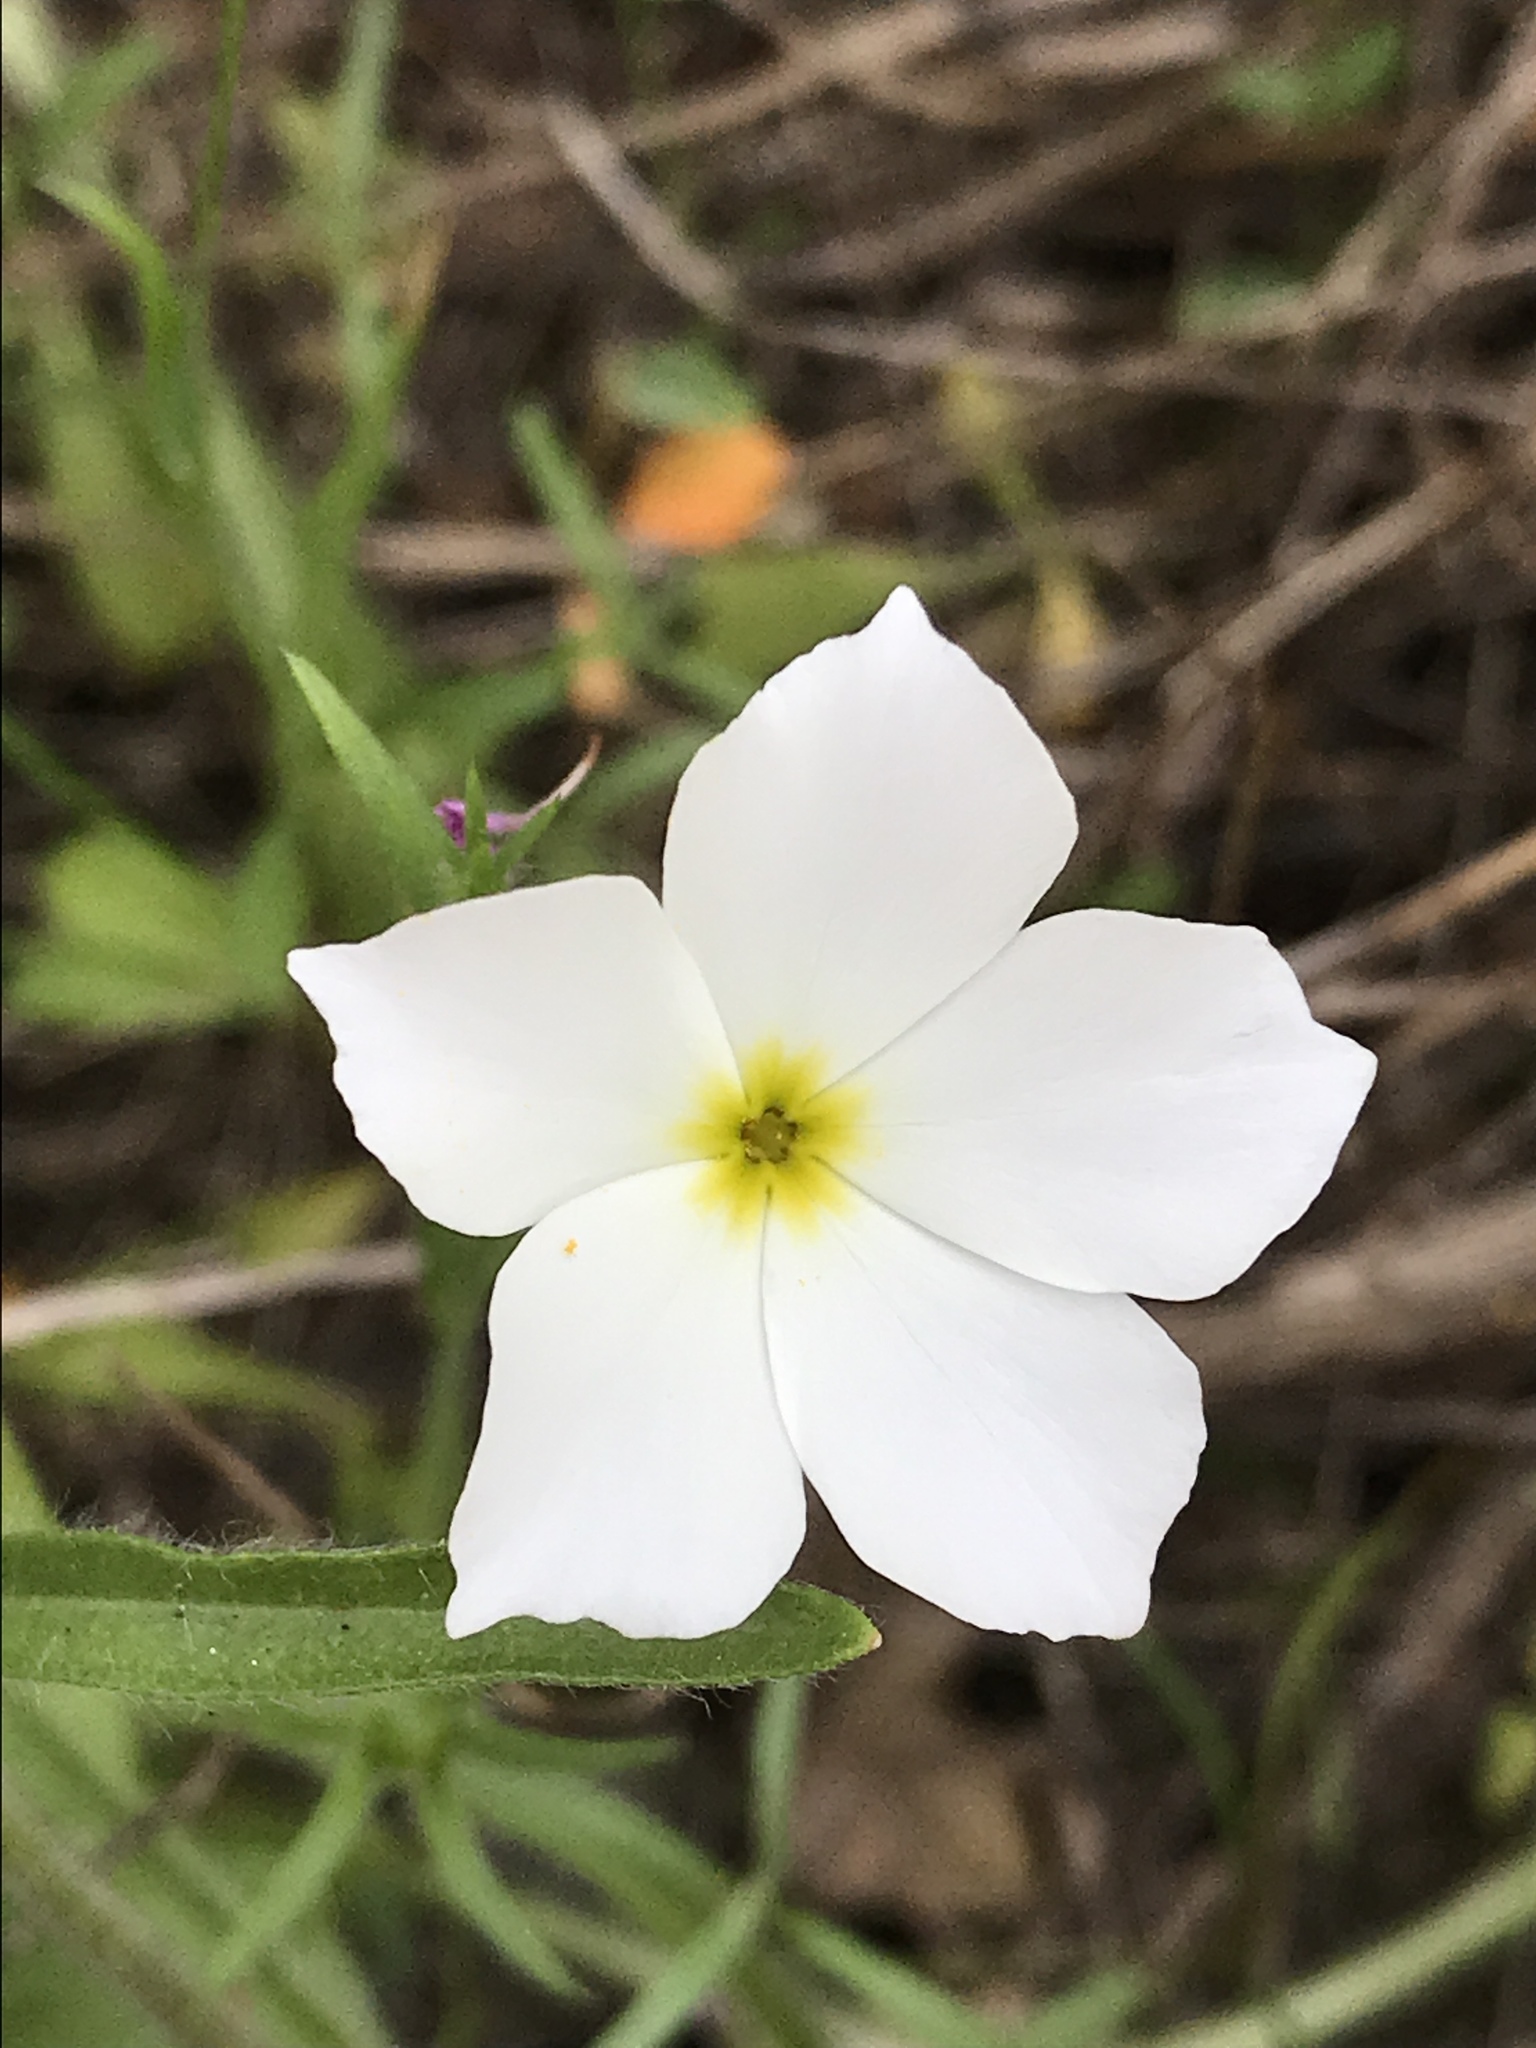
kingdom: Plantae
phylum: Tracheophyta
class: Magnoliopsida
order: Ericales
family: Polemoniaceae
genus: Phlox
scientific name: Phlox roemeriana
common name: Roemer's phlox
